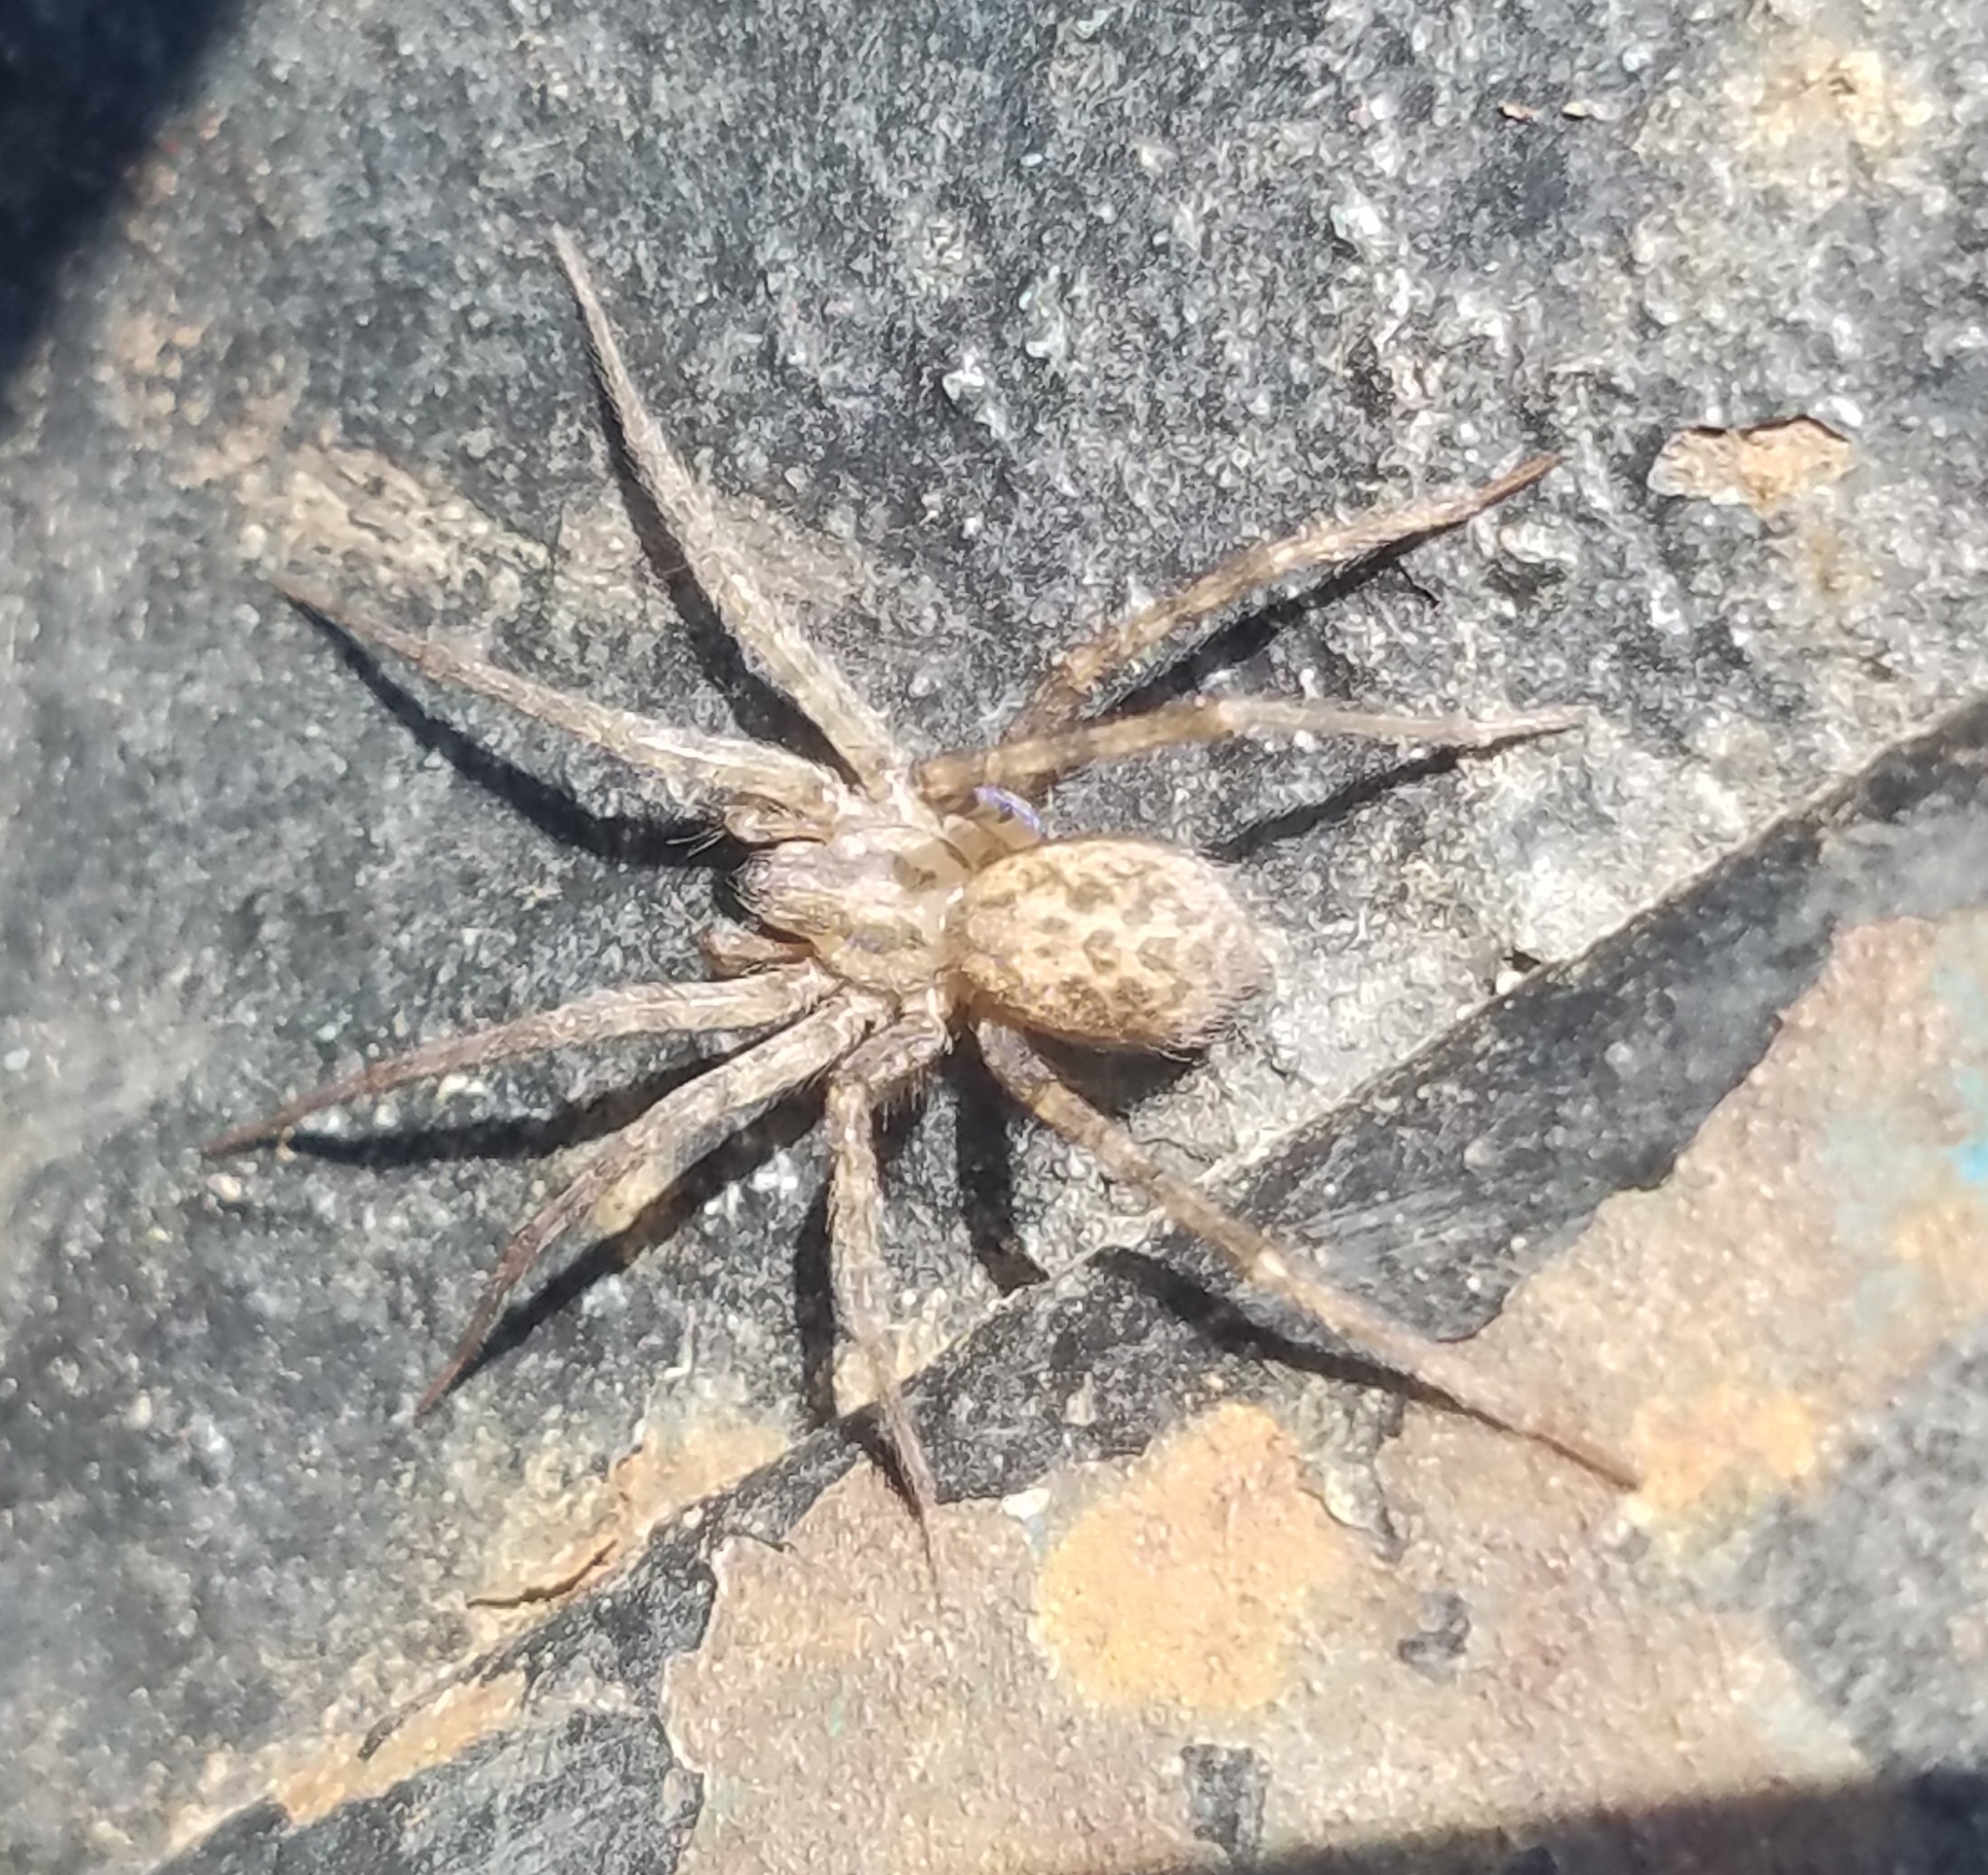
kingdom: Animalia
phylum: Arthropoda
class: Arachnida
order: Araneae
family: Agelenidae
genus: Tegenaria
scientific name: Tegenaria domestica
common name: Barn funnel weaver
